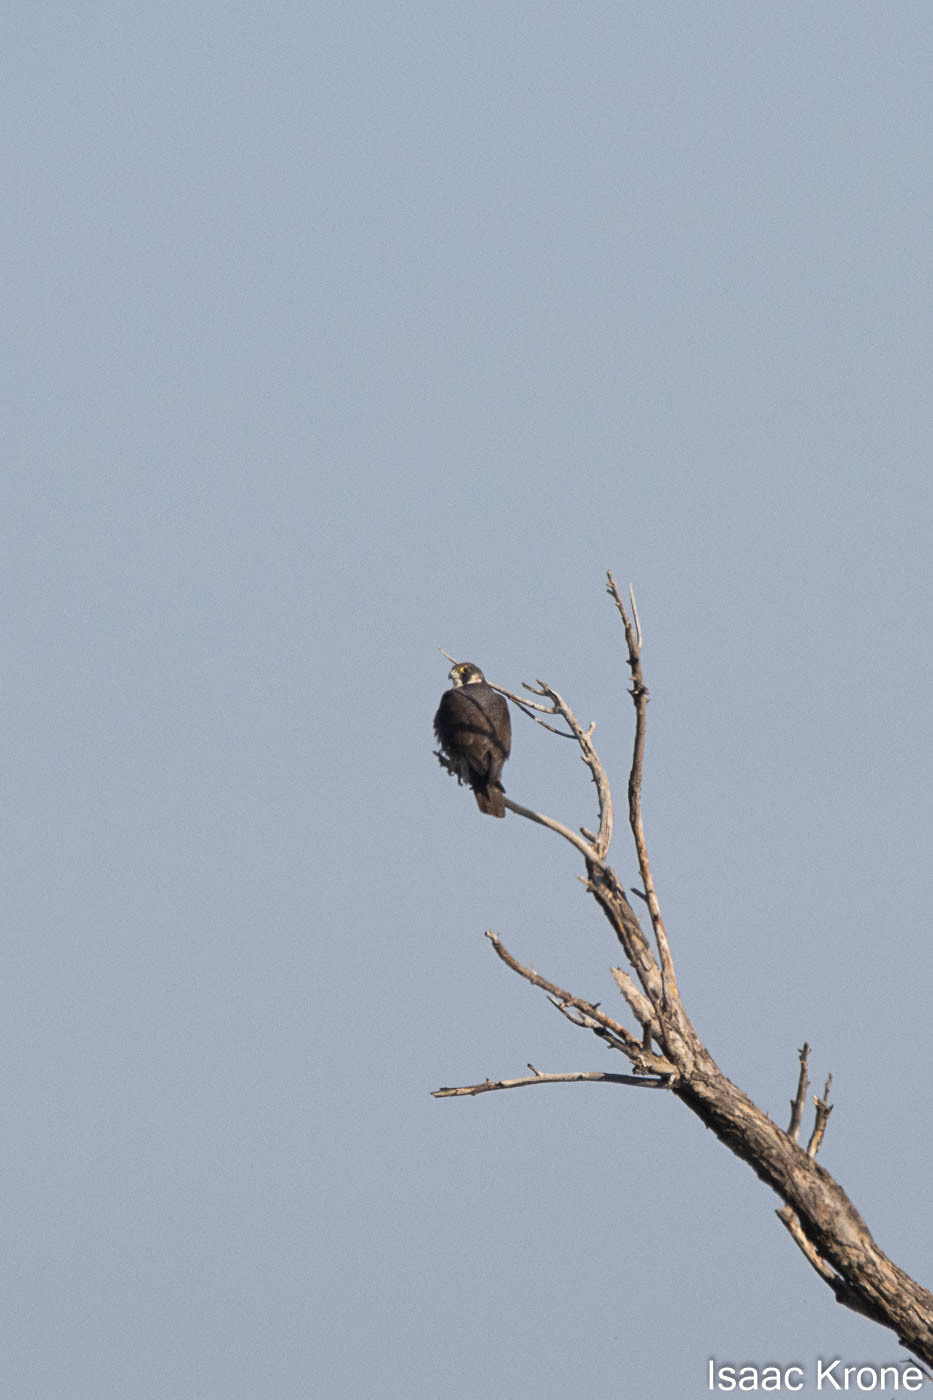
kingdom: Animalia
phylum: Chordata
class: Aves
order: Falconiformes
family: Falconidae
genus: Falco
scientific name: Falco peregrinus
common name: Peregrine falcon
